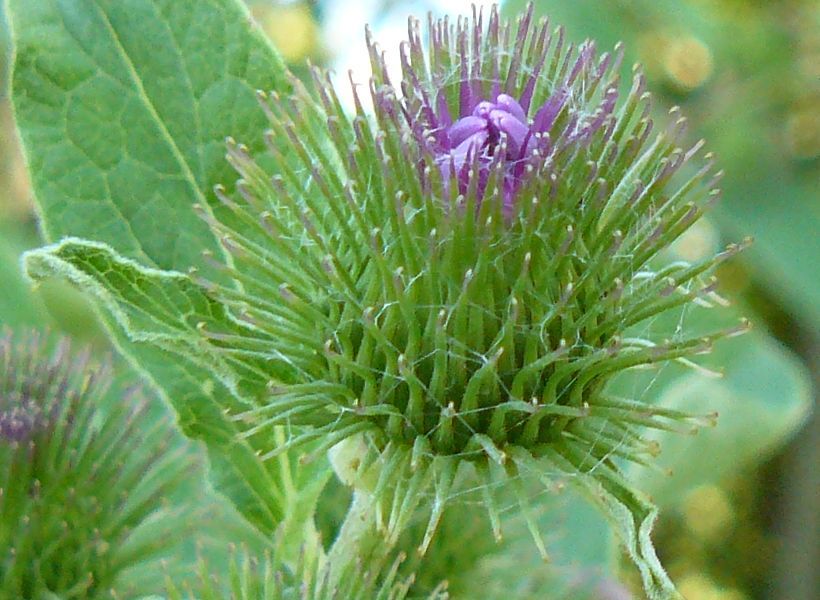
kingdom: Plantae
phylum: Tracheophyta
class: Magnoliopsida
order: Asterales
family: Asteraceae
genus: Arctium
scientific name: Arctium minus
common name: Lesser burdock
